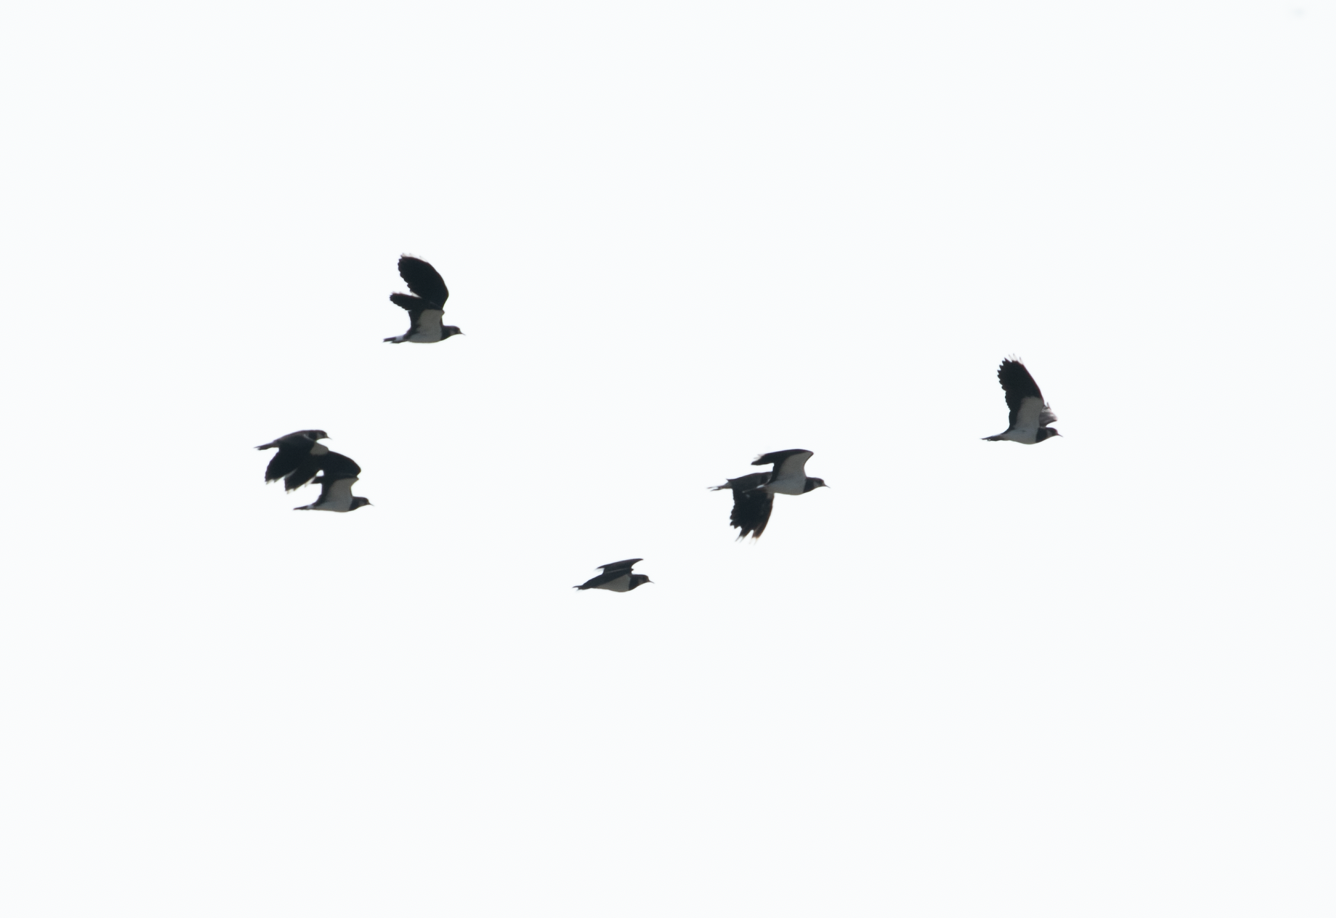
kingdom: Animalia
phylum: Chordata
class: Aves
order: Charadriiformes
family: Charadriidae
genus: Vanellus
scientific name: Vanellus vanellus
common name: Northern lapwing
